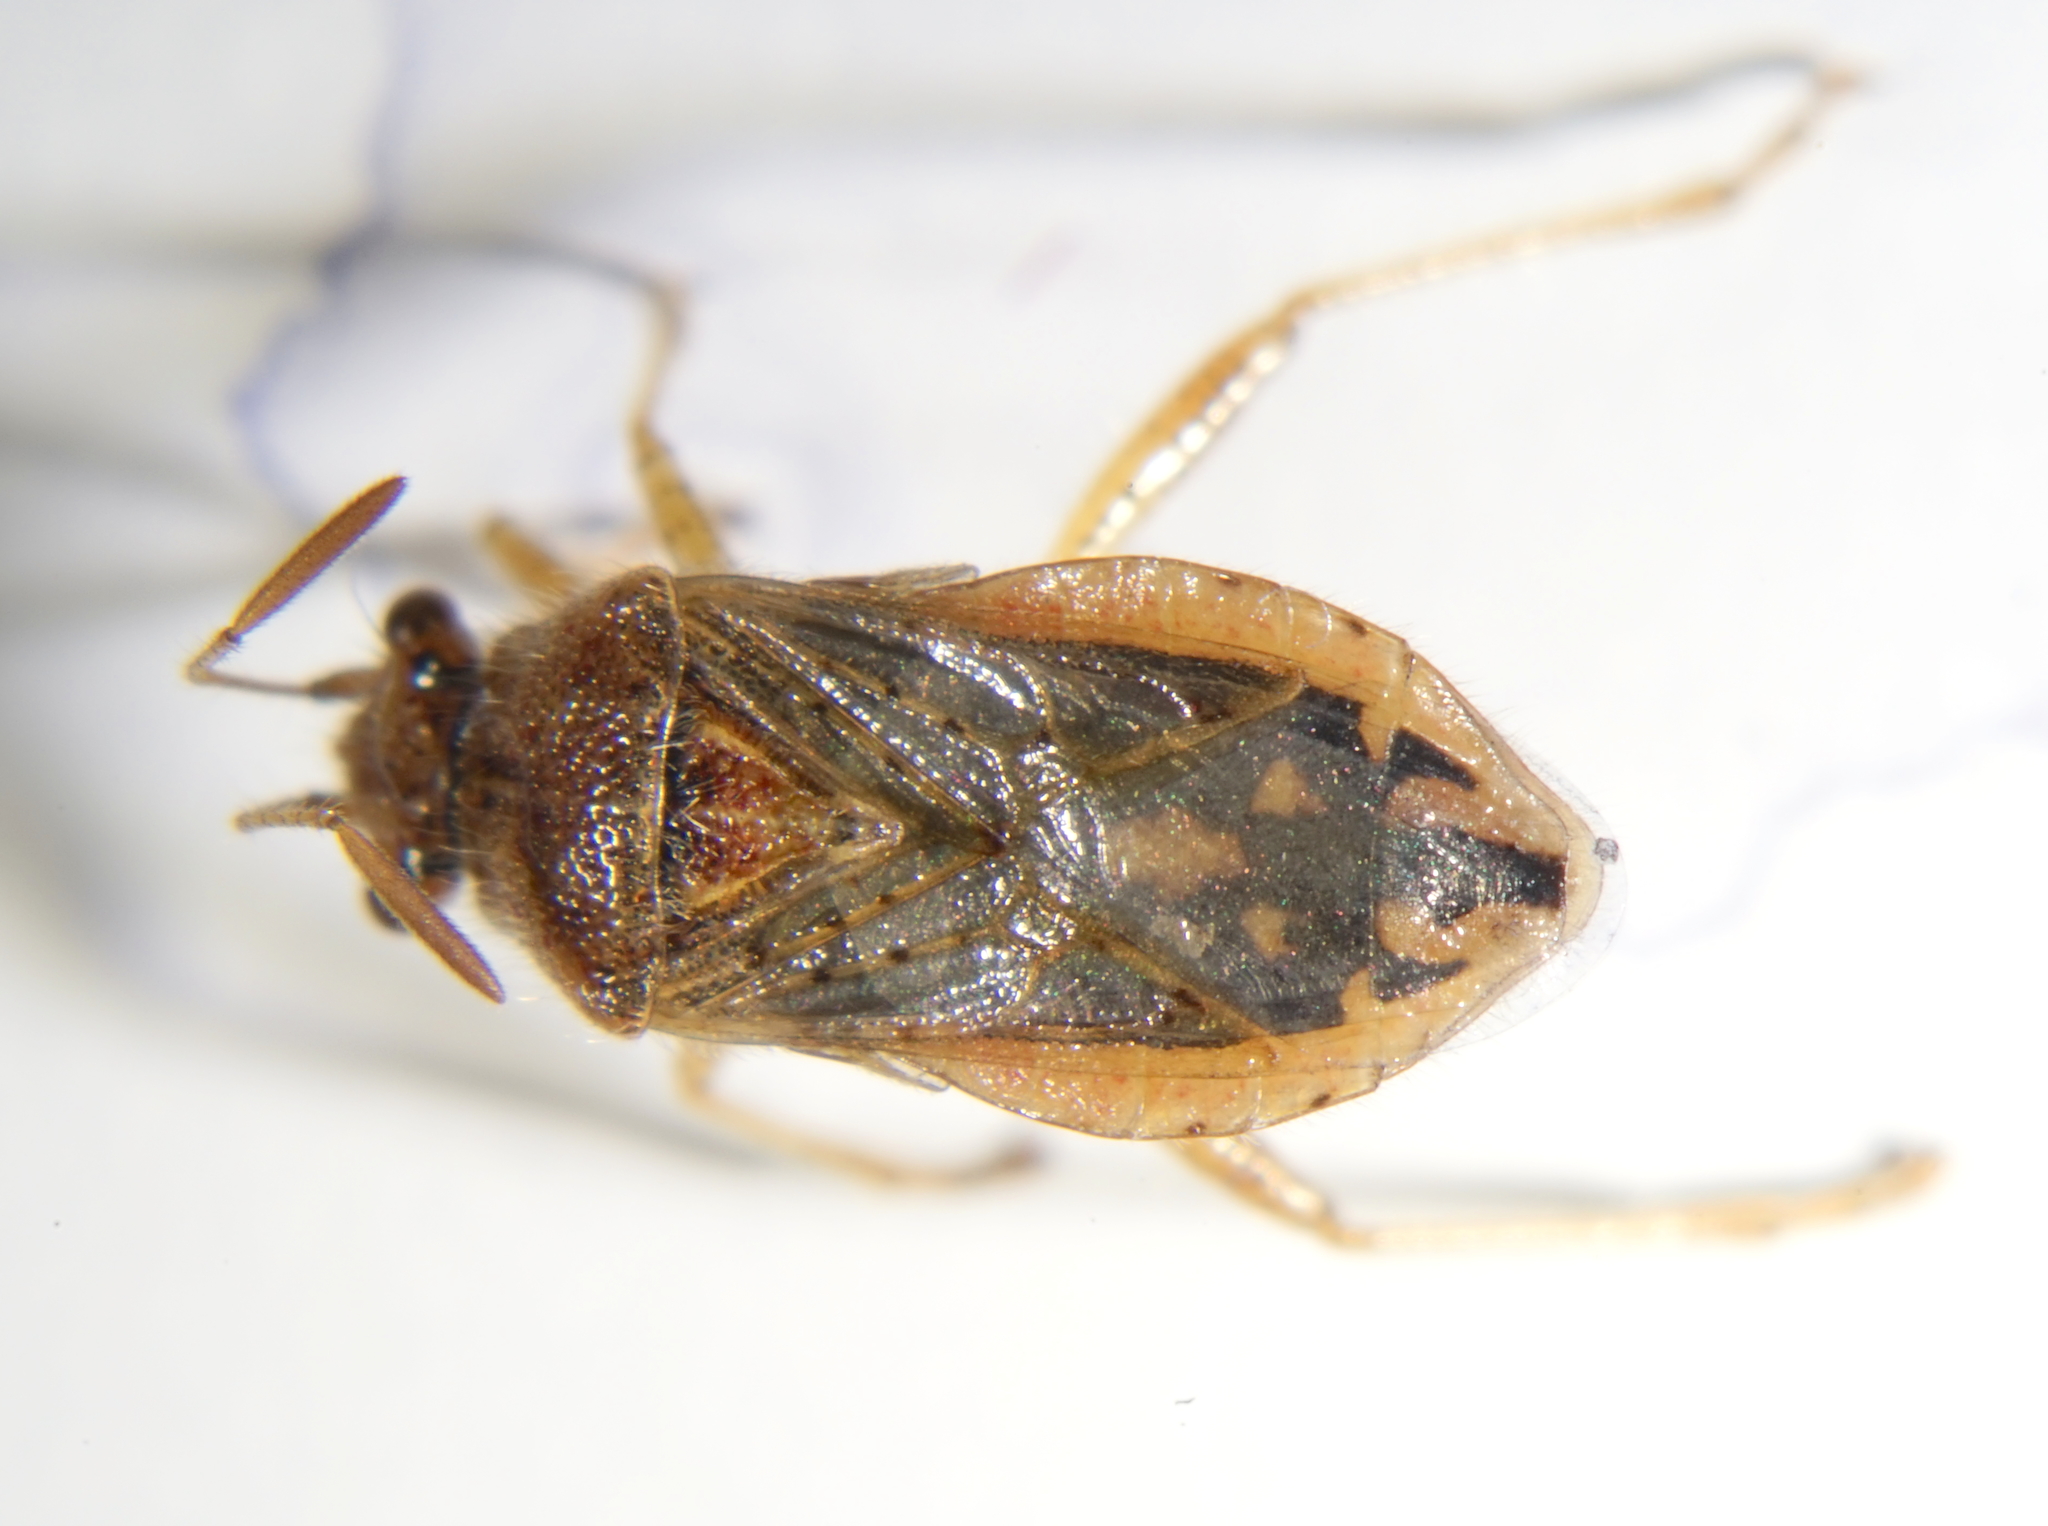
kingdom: Animalia
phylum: Arthropoda
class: Insecta
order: Hemiptera
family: Rhopalidae
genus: Rhopalus
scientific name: Rhopalus parumpunctatus
